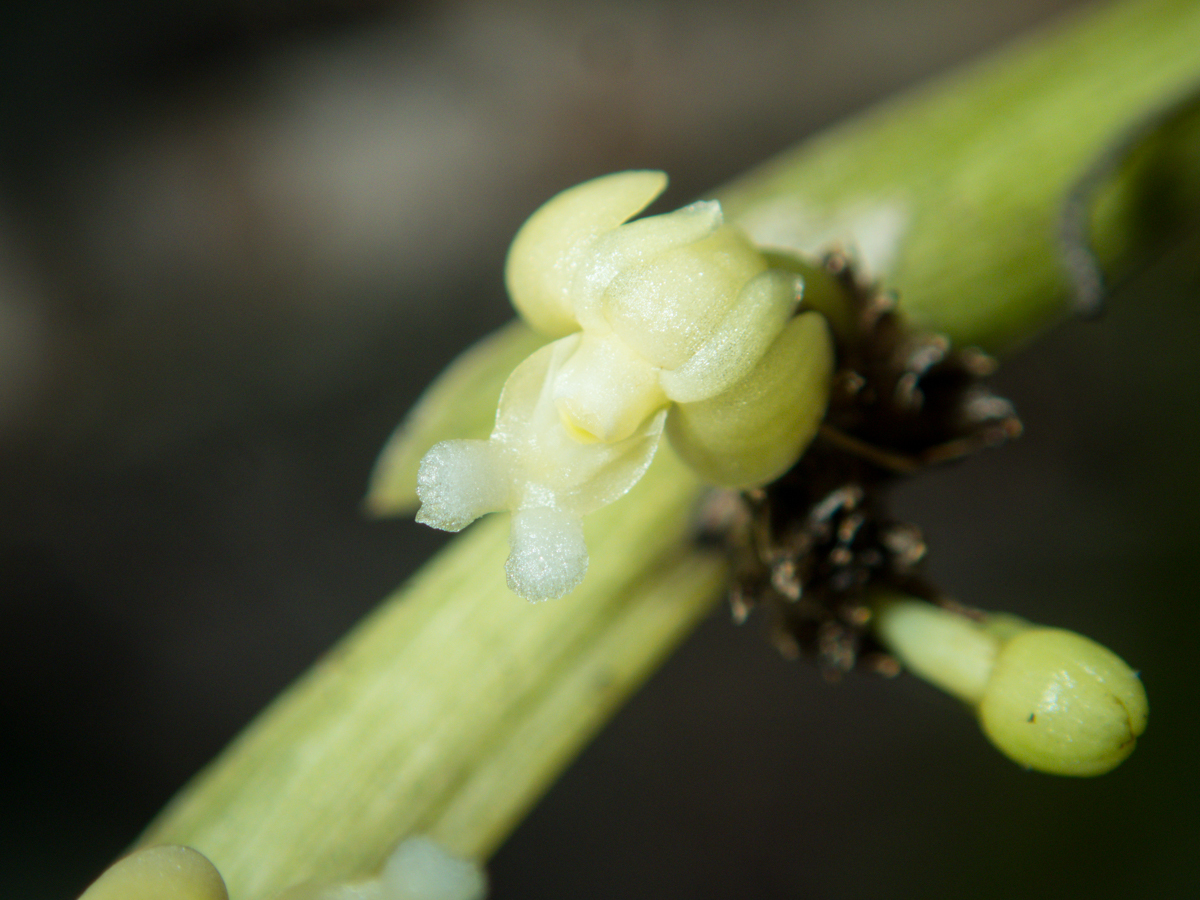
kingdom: Plantae
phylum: Tracheophyta
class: Liliopsida
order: Asparagales
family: Orchidaceae
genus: Dendrobium
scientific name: Dendrobium aloifolium
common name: Aloe-like dendrobium
